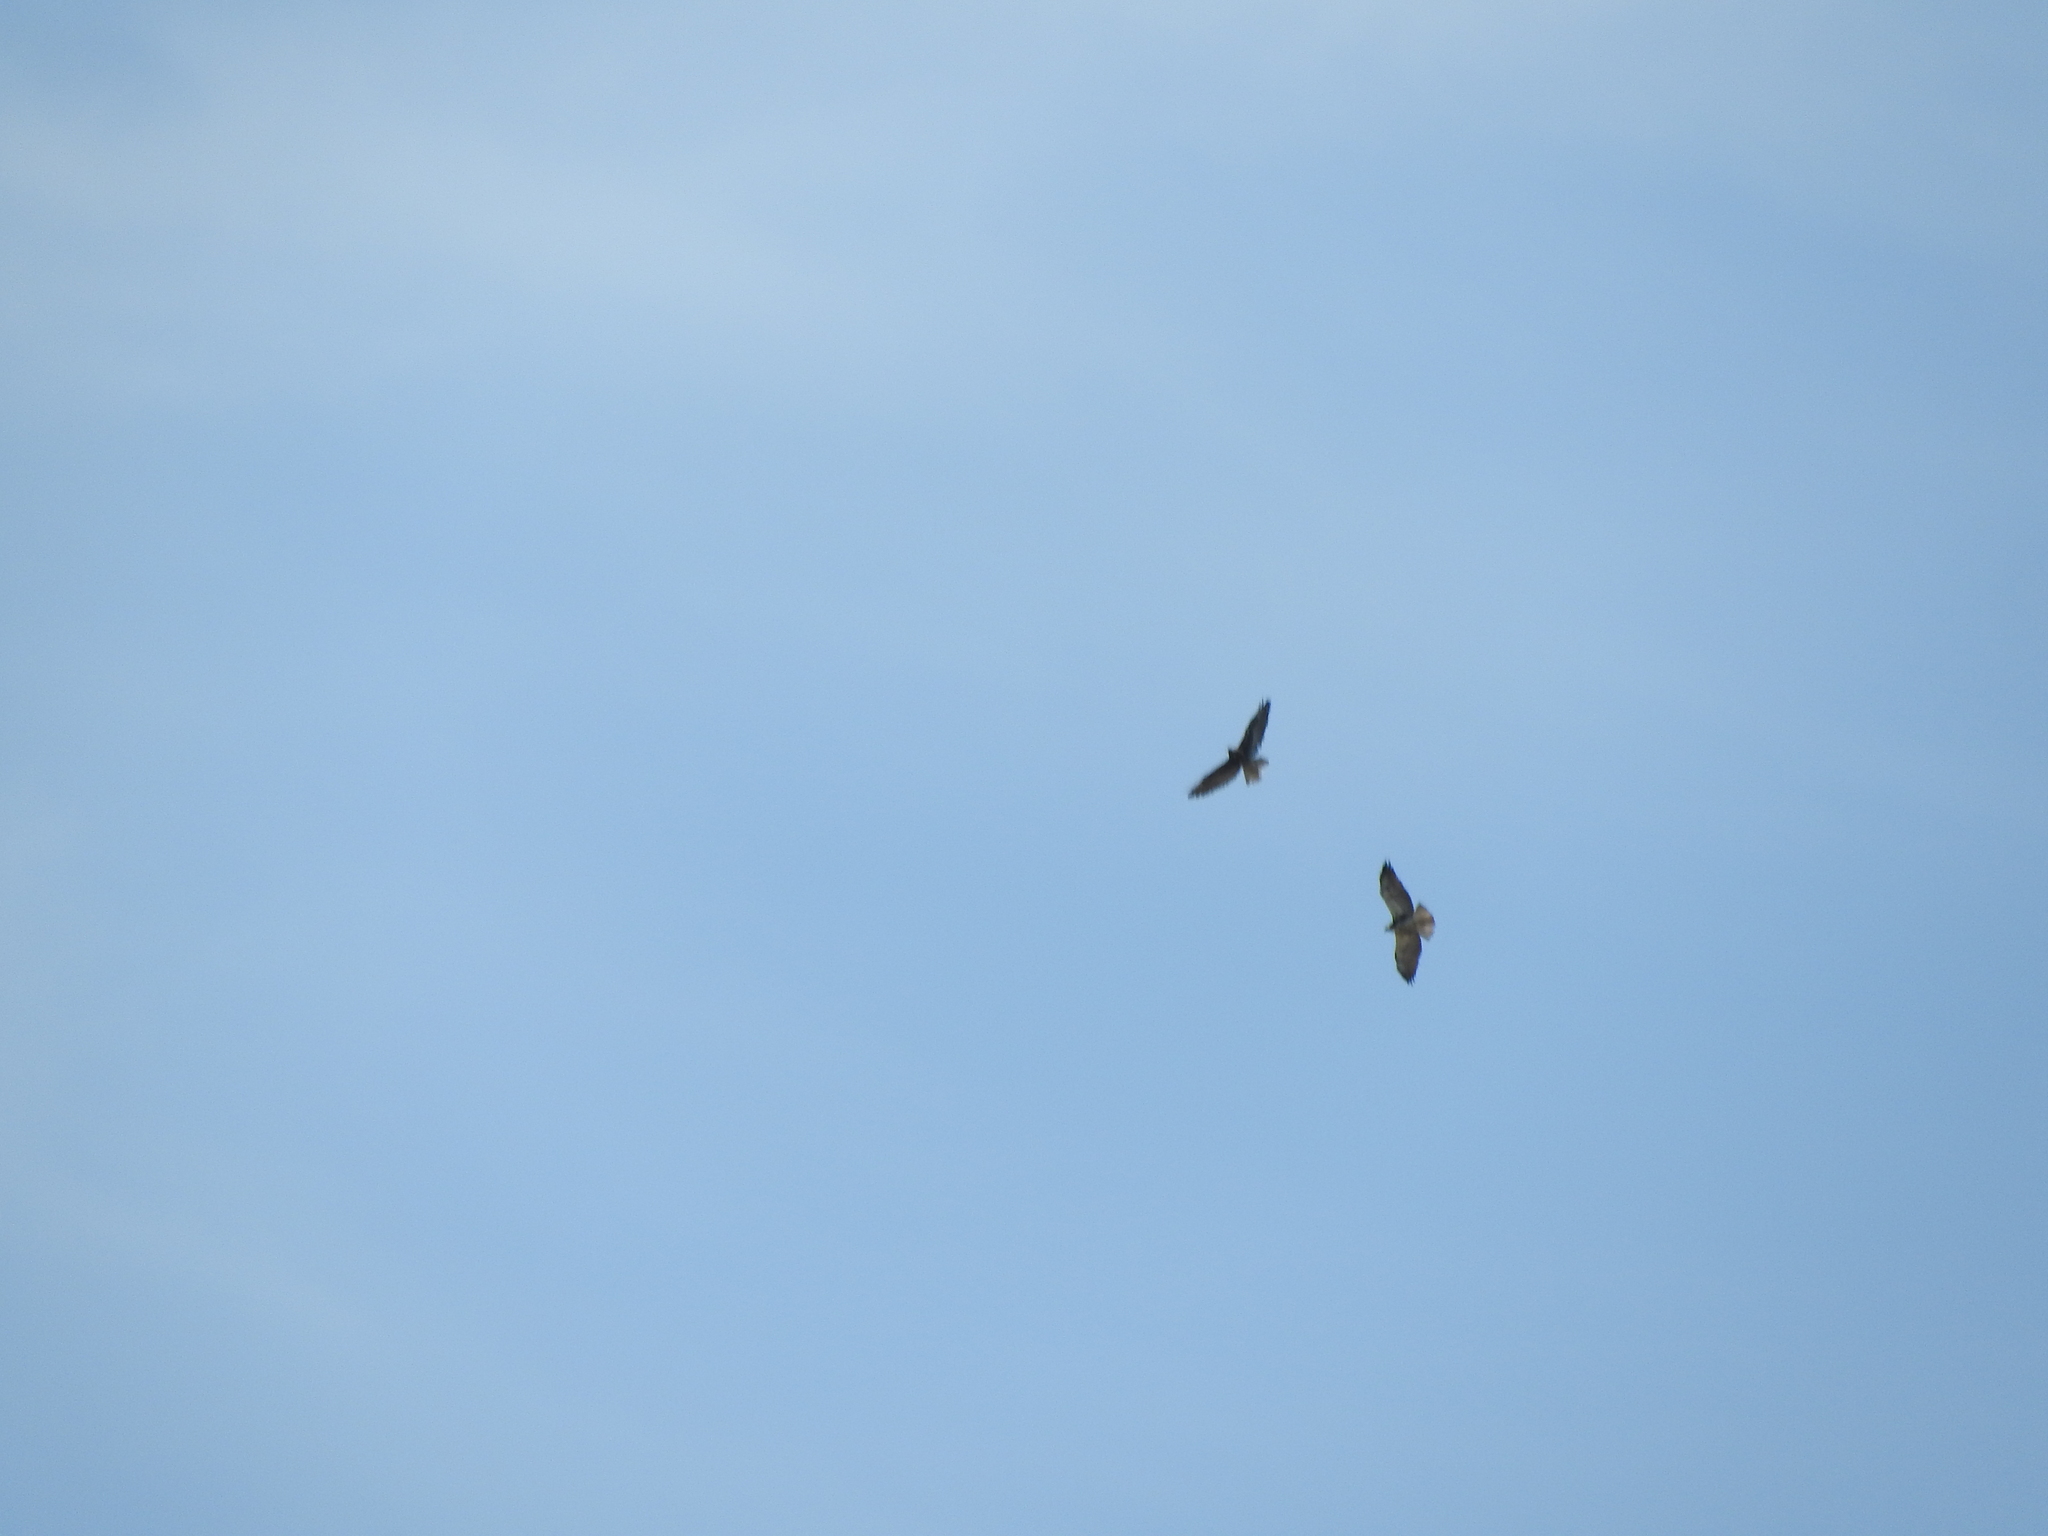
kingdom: Animalia
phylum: Chordata
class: Aves
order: Accipitriformes
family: Accipitridae
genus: Buteo
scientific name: Buteo jamaicensis
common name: Red-tailed hawk
